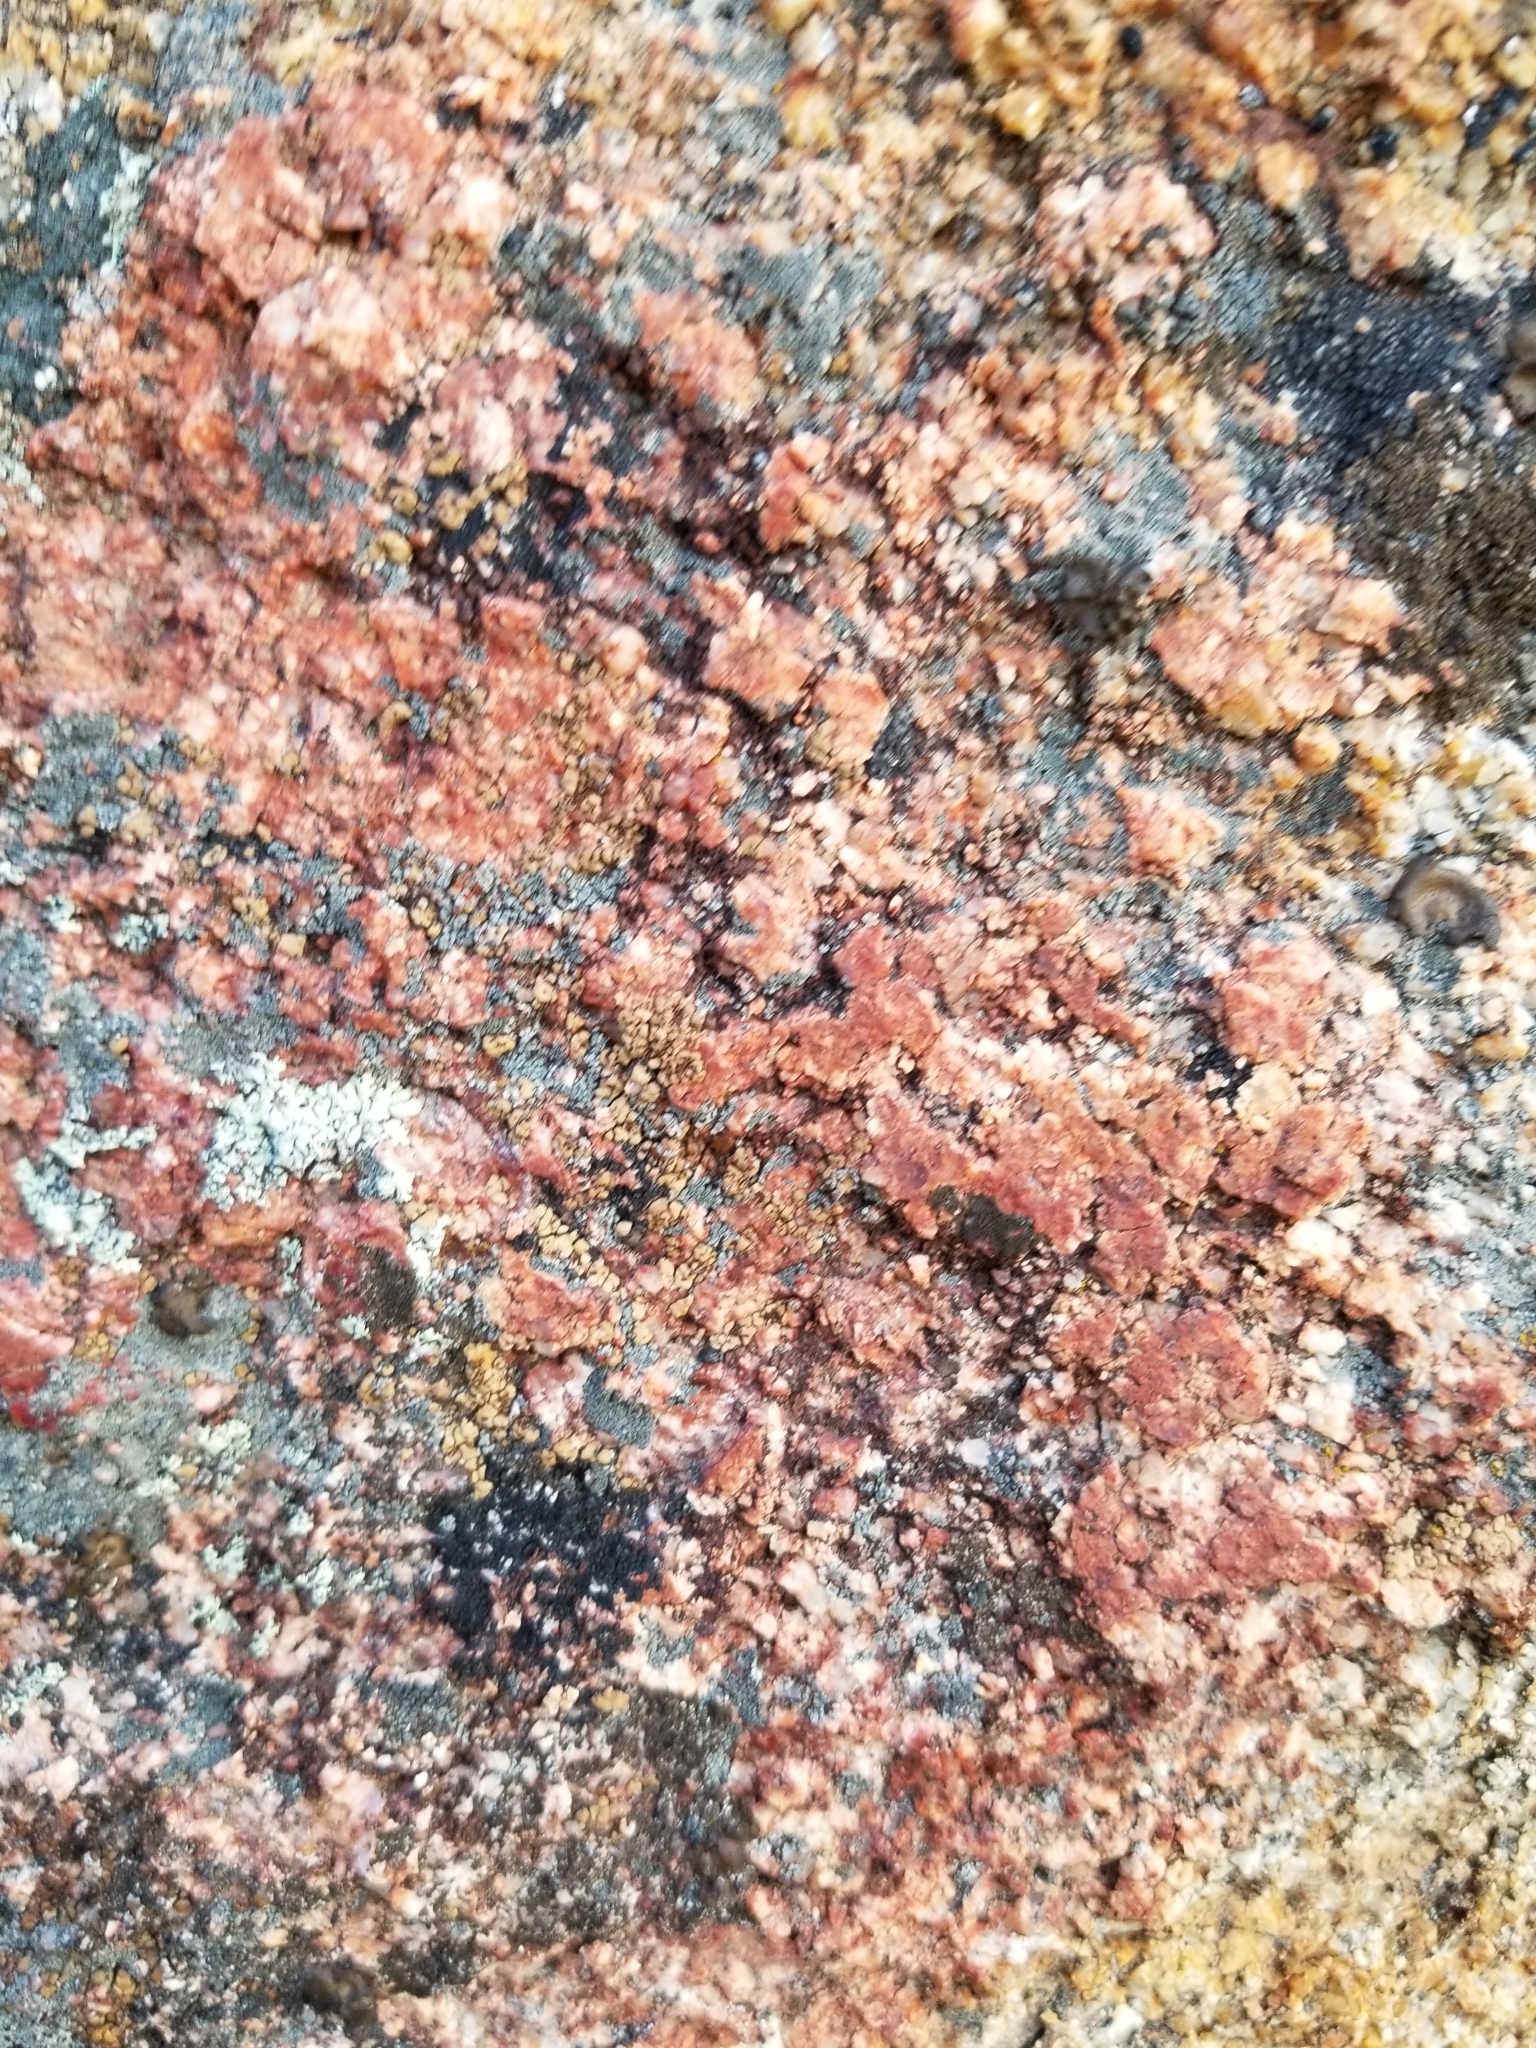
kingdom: Fungi
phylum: Ascomycota
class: Lecanoromycetes
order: Acarosporales
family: Acarosporaceae
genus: Acarospora
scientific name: Acarospora fuscata
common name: Brown cobblestone lichen
